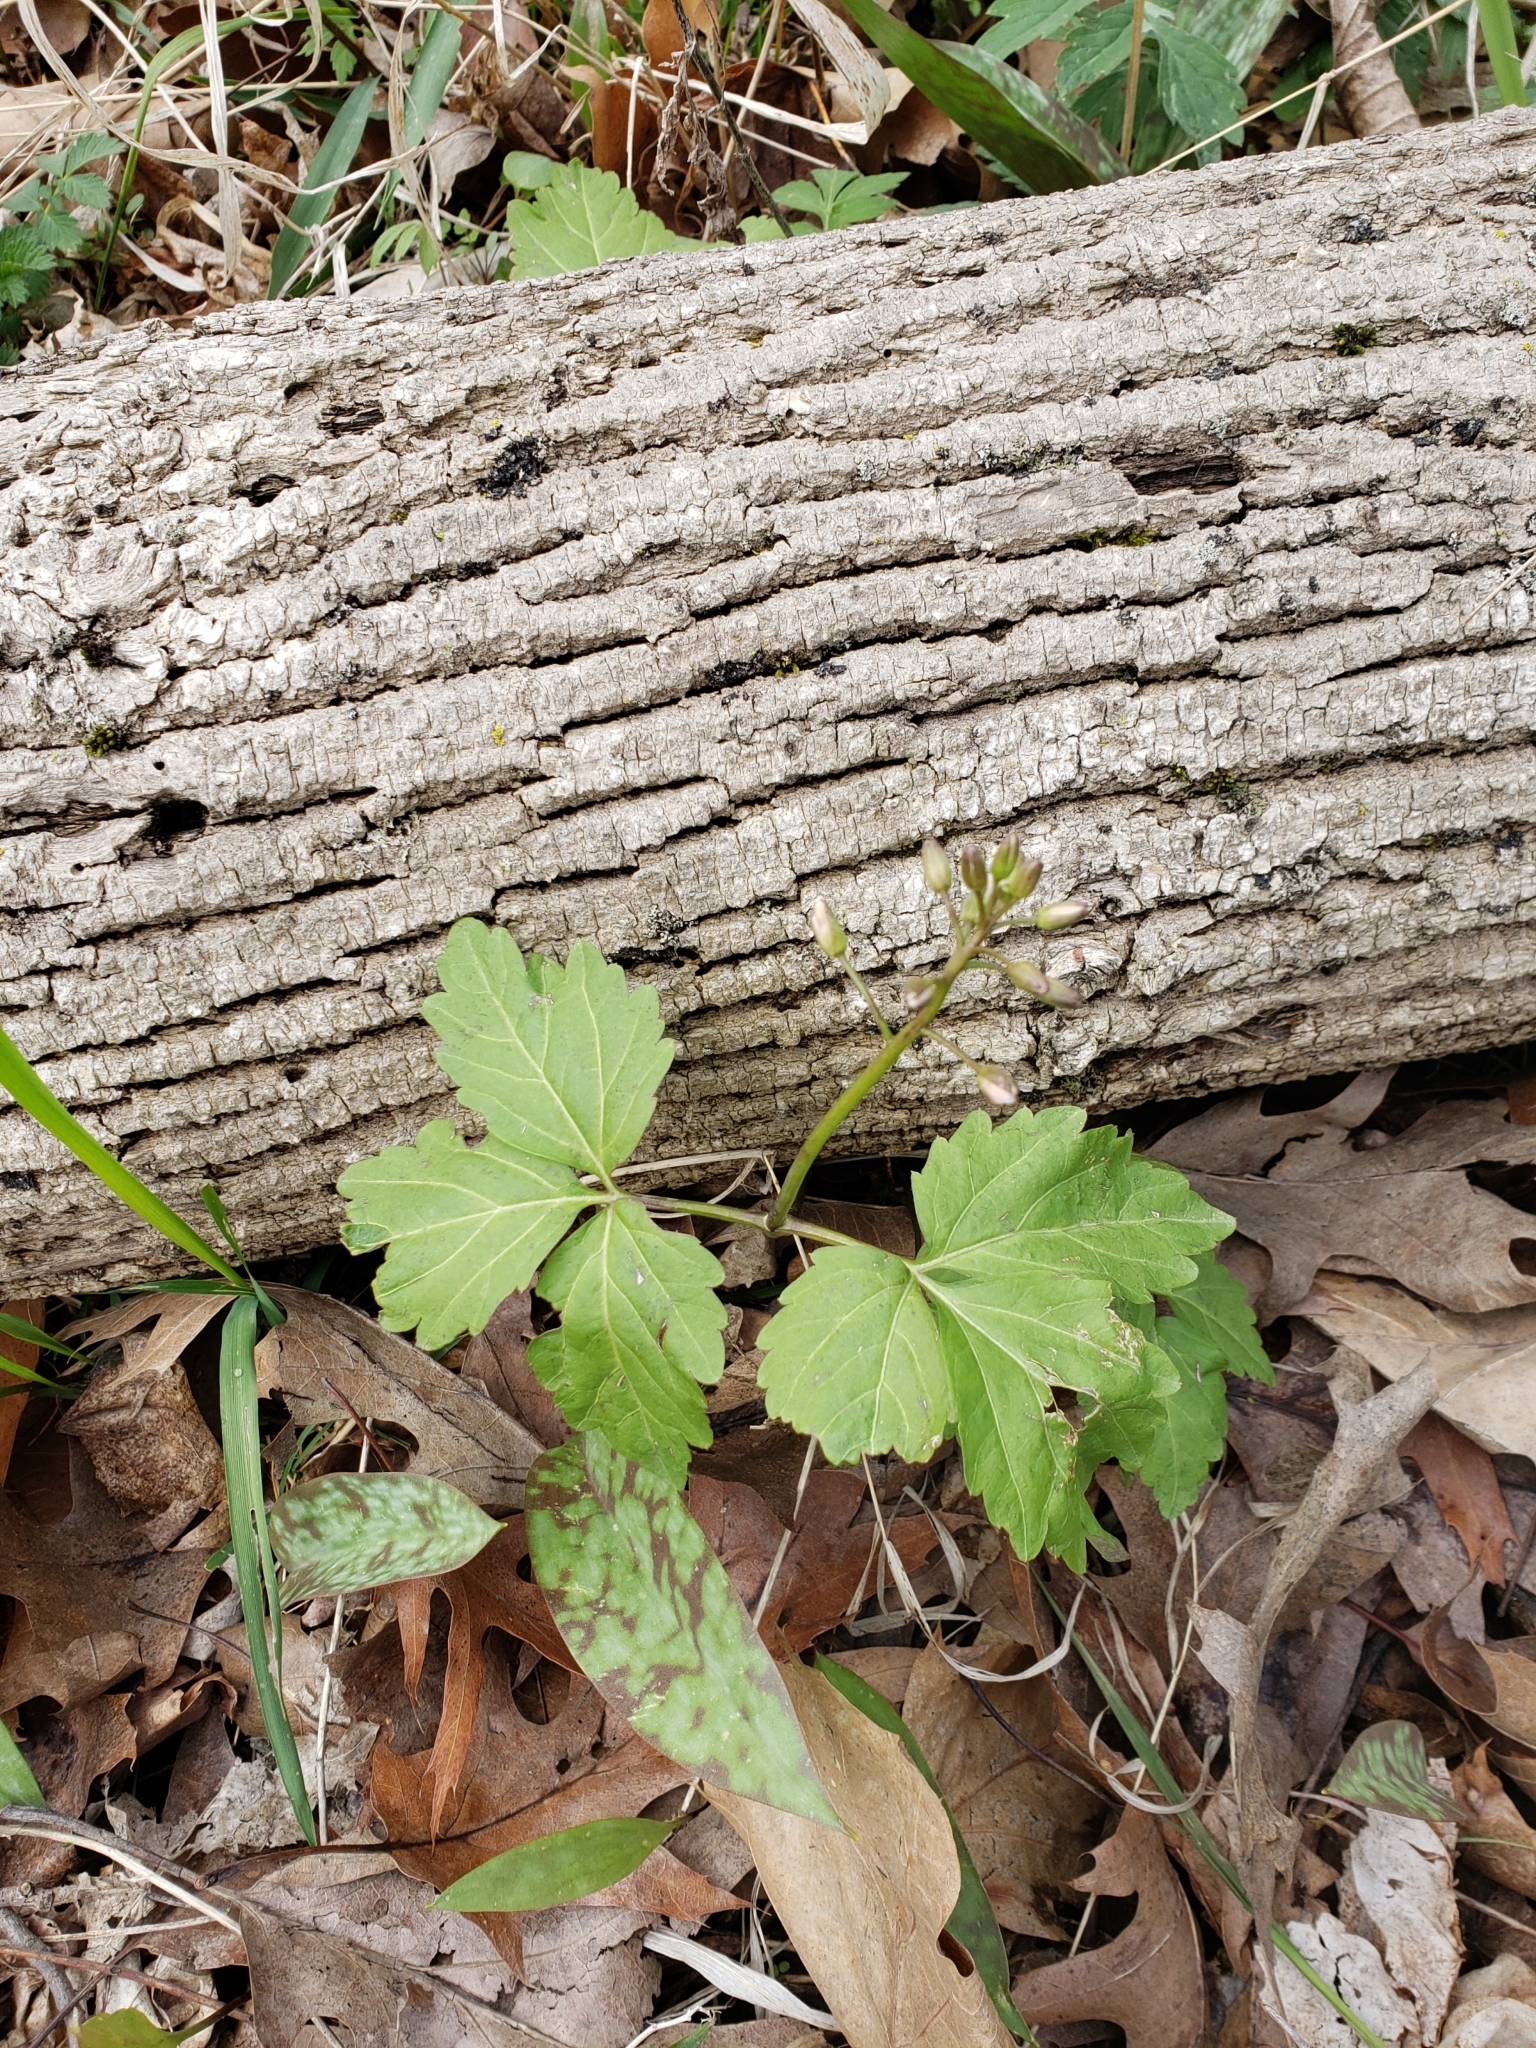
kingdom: Plantae
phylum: Tracheophyta
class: Magnoliopsida
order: Brassicales
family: Brassicaceae
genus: Cardamine
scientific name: Cardamine diphylla
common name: Broad-leaved toothwort
